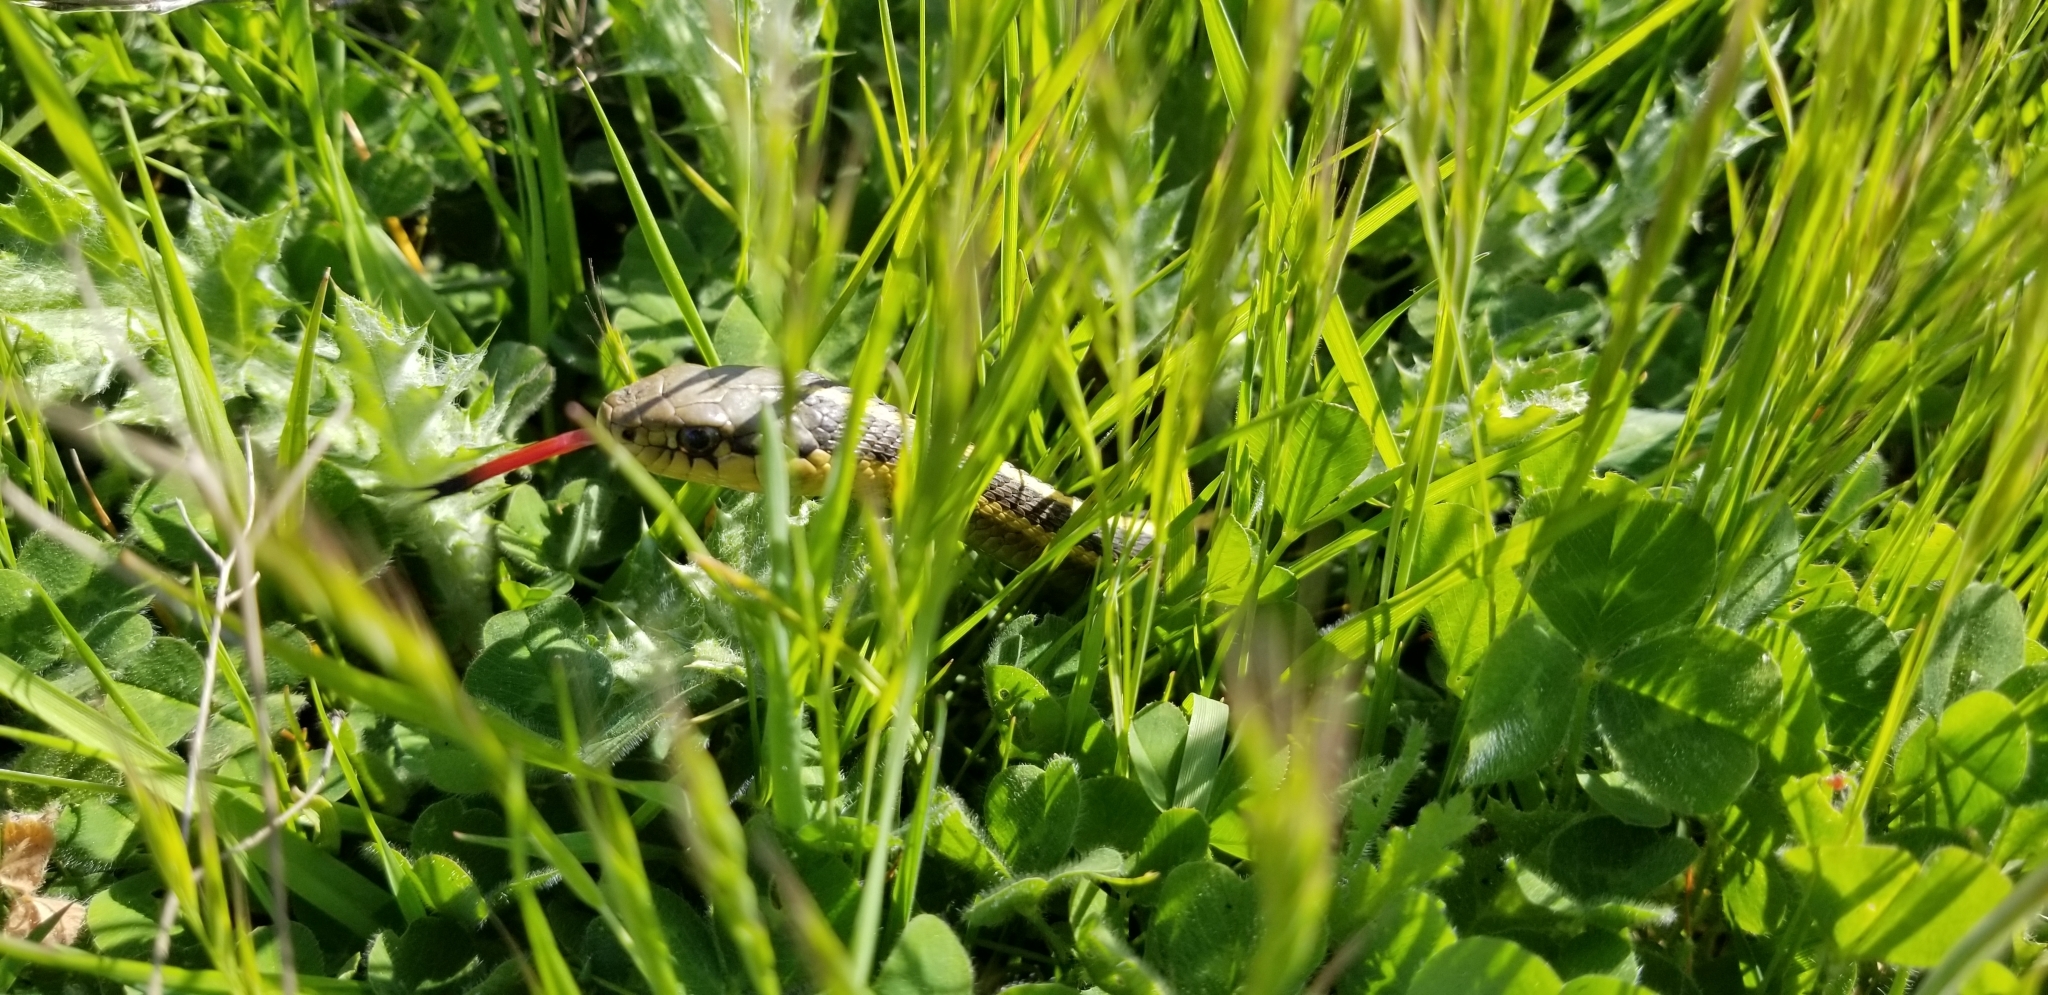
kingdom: Animalia
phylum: Chordata
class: Squamata
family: Colubridae
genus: Thamnophis
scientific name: Thamnophis elegans
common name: Western terrestrial garter snake
